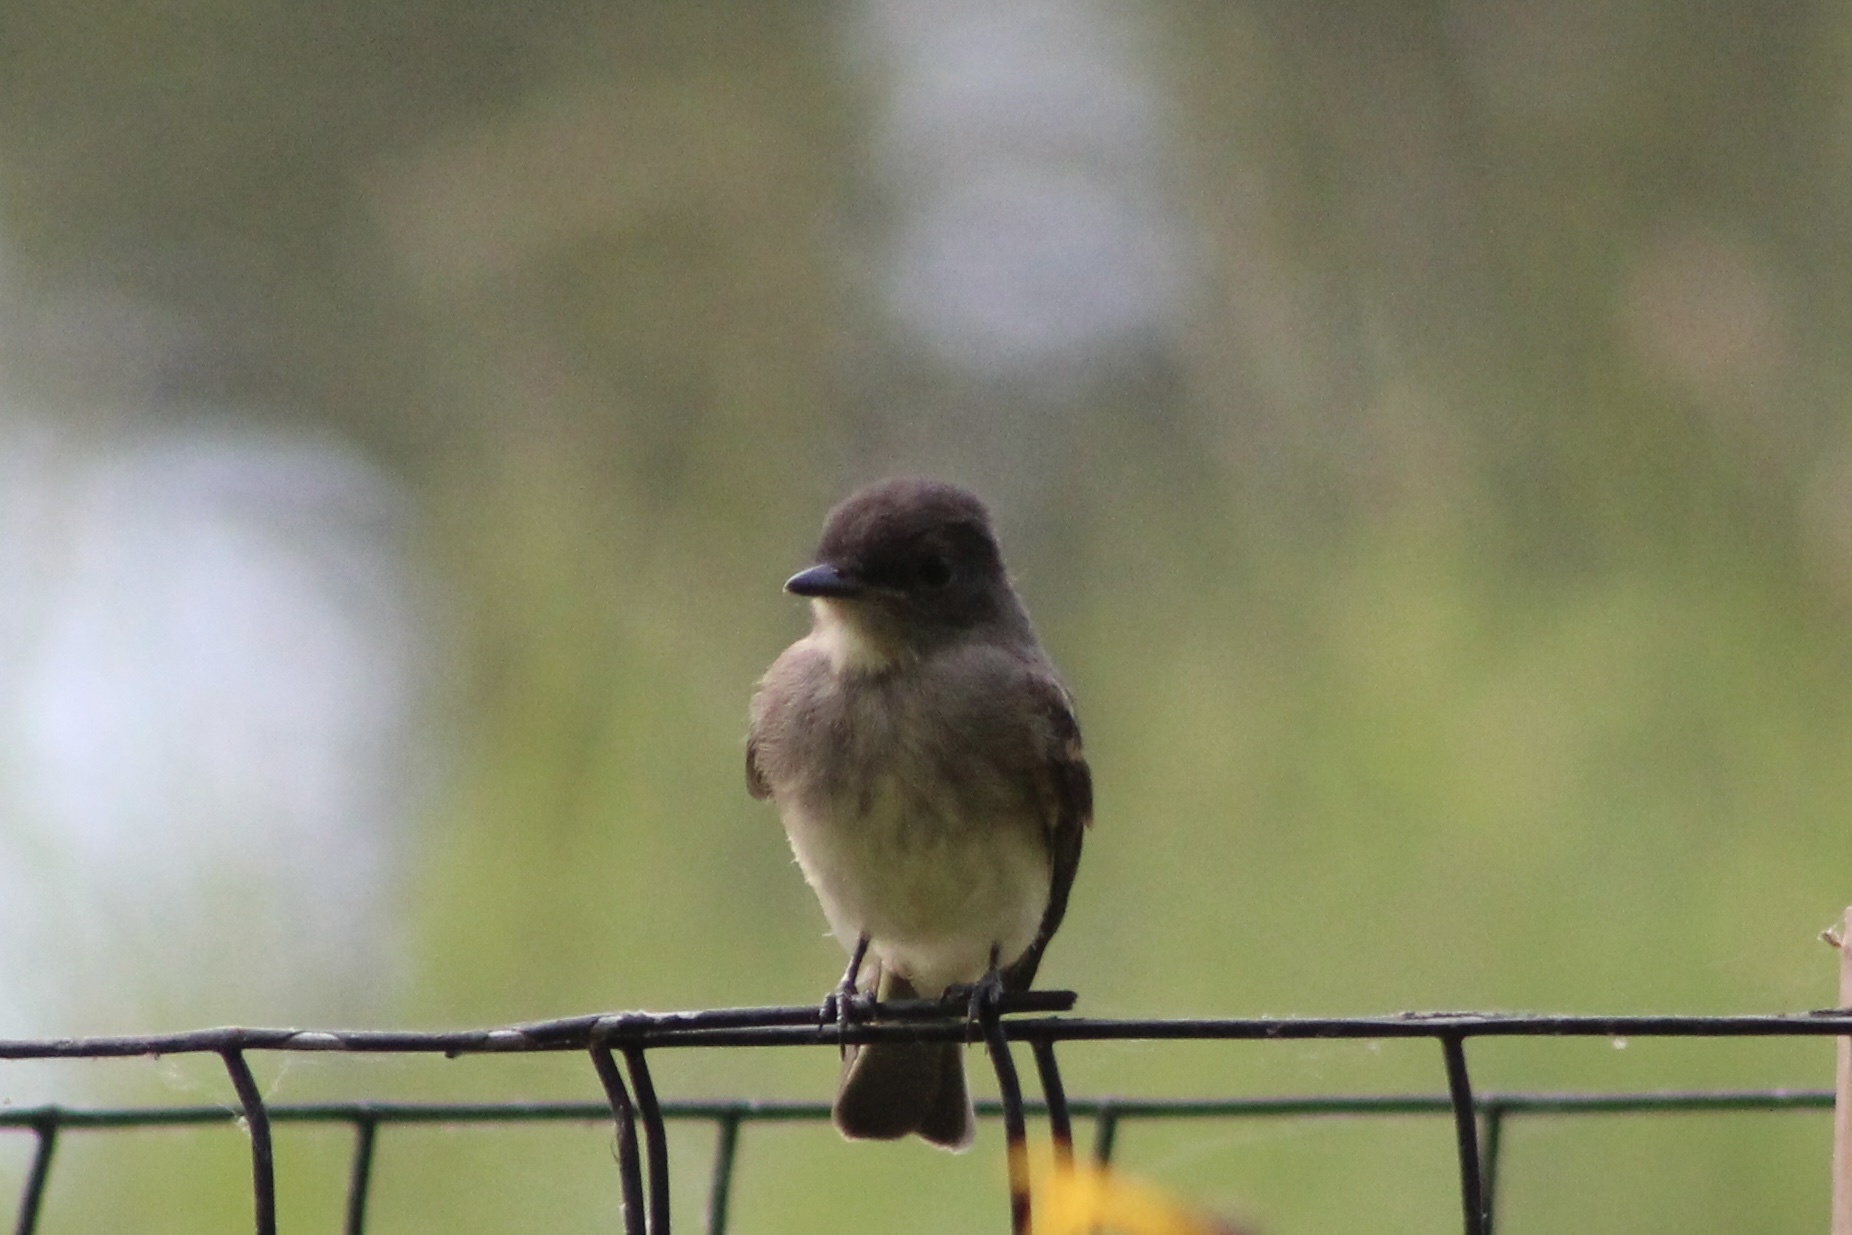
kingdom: Animalia
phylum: Chordata
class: Aves
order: Passeriformes
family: Tyrannidae
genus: Sayornis
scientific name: Sayornis phoebe
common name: Eastern phoebe
